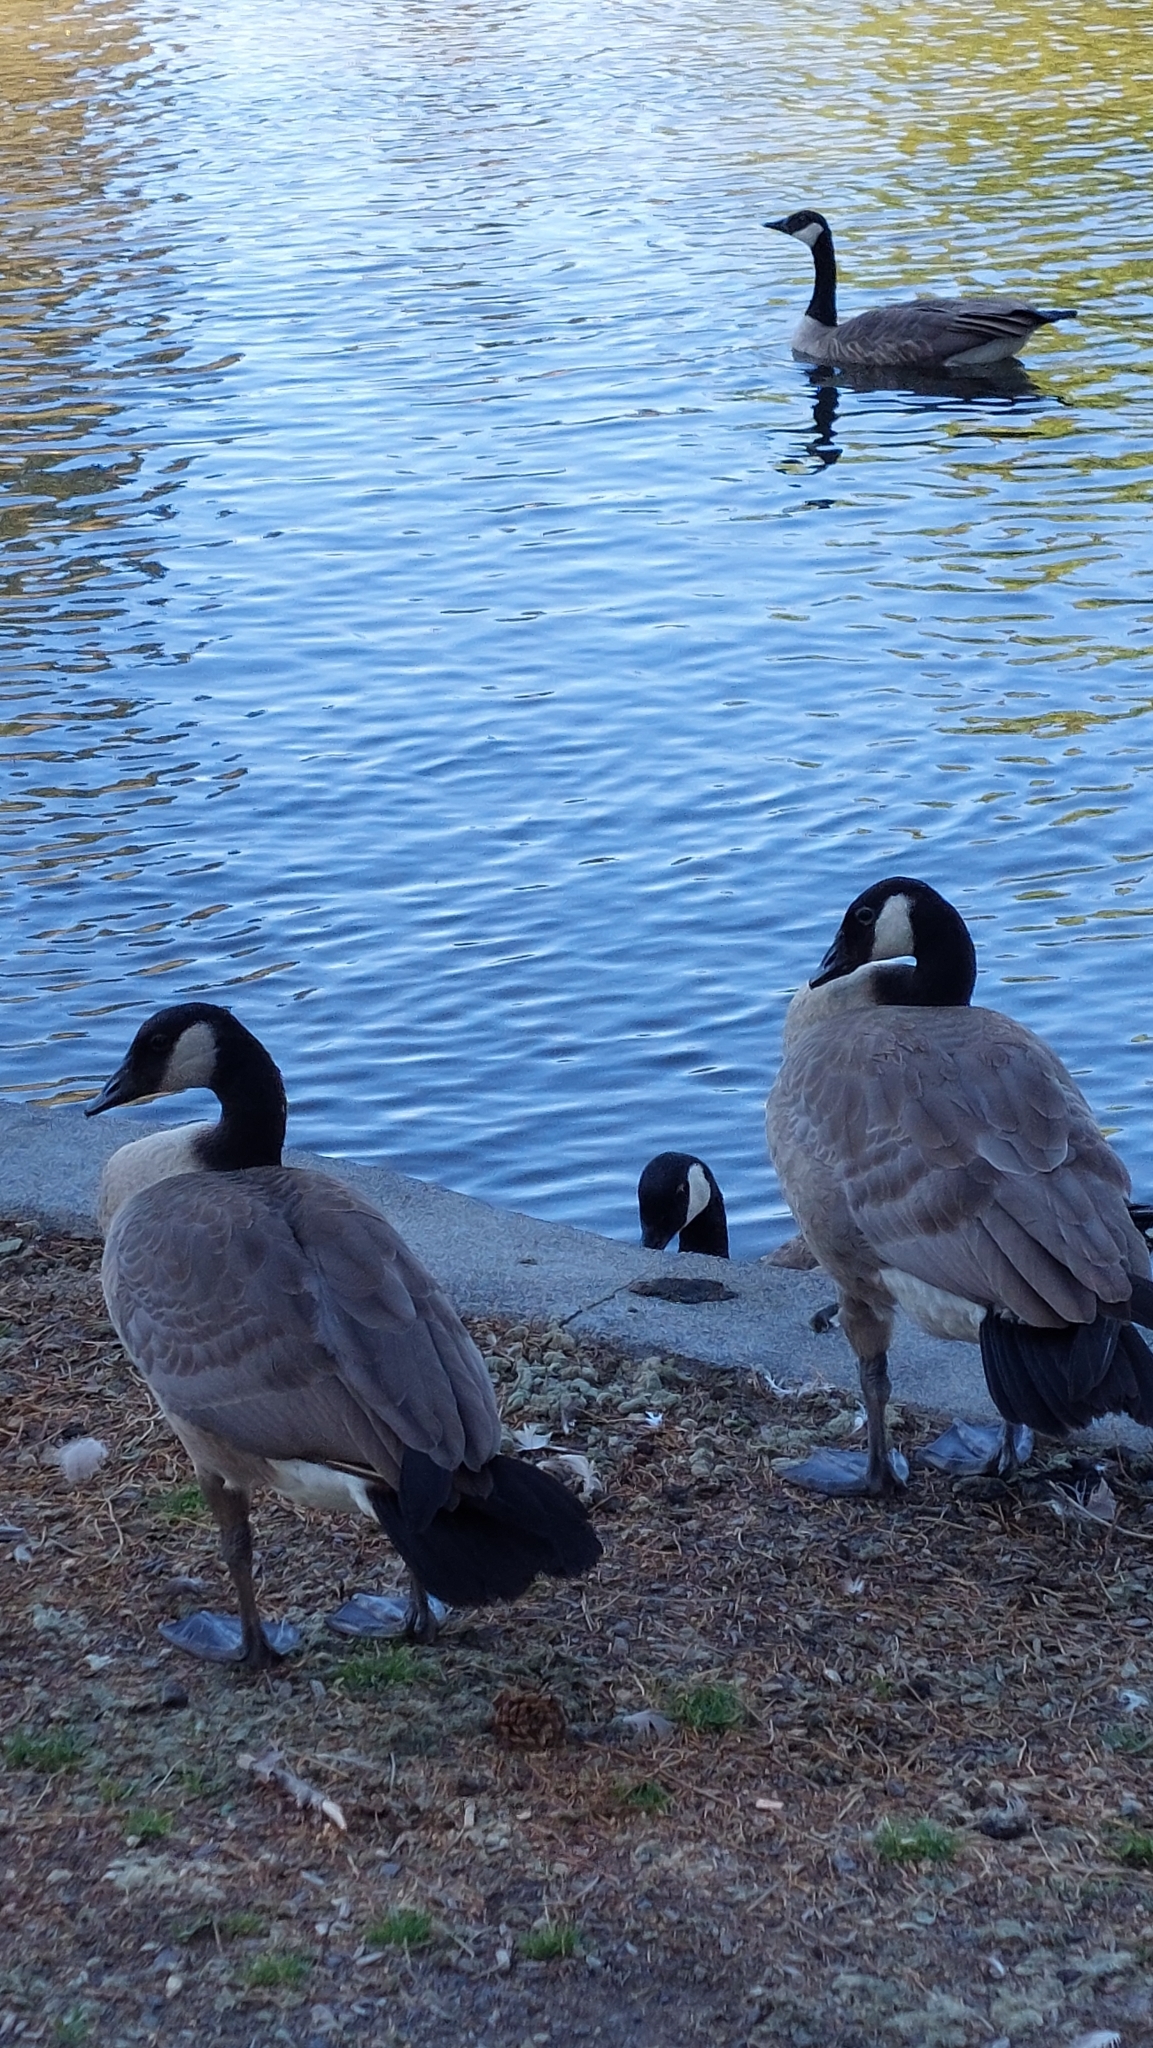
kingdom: Animalia
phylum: Chordata
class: Aves
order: Anseriformes
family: Anatidae
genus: Branta
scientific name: Branta canadensis
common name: Canada goose
